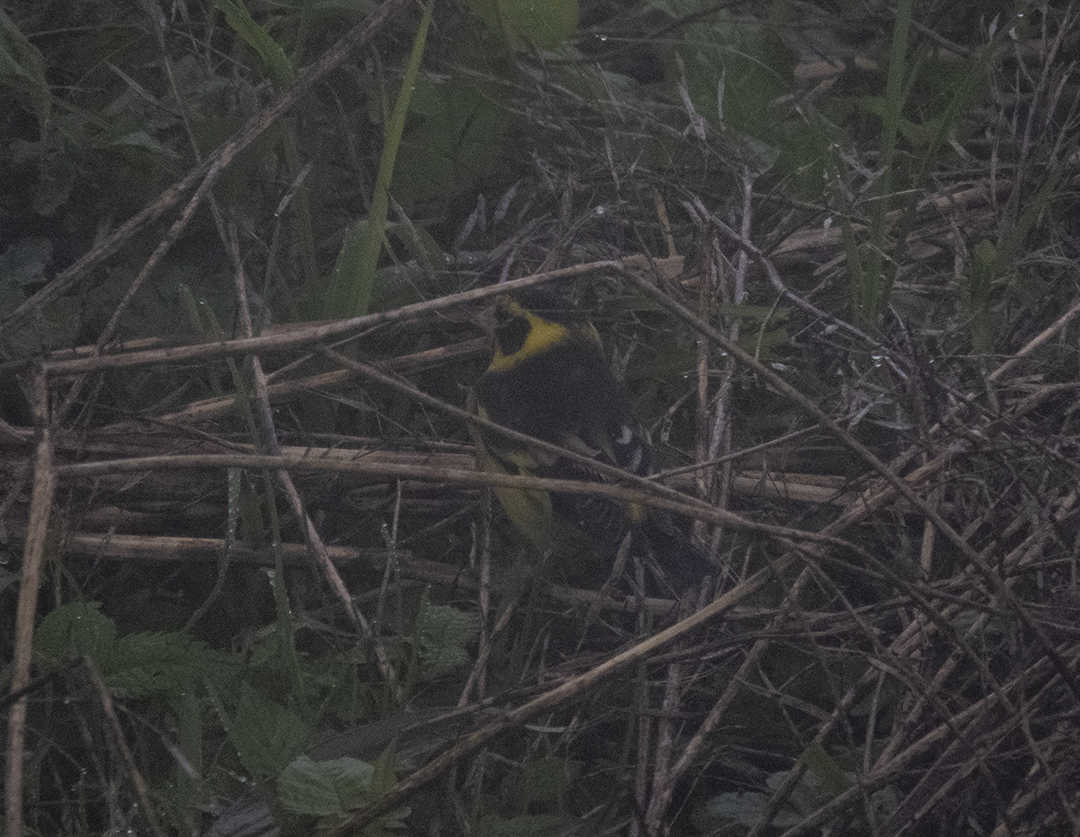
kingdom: Animalia
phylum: Chordata
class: Aves
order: Passeriformes
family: Fringillidae
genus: Chloris
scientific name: Chloris spinoides
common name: Yellow-breasted greenfinch
